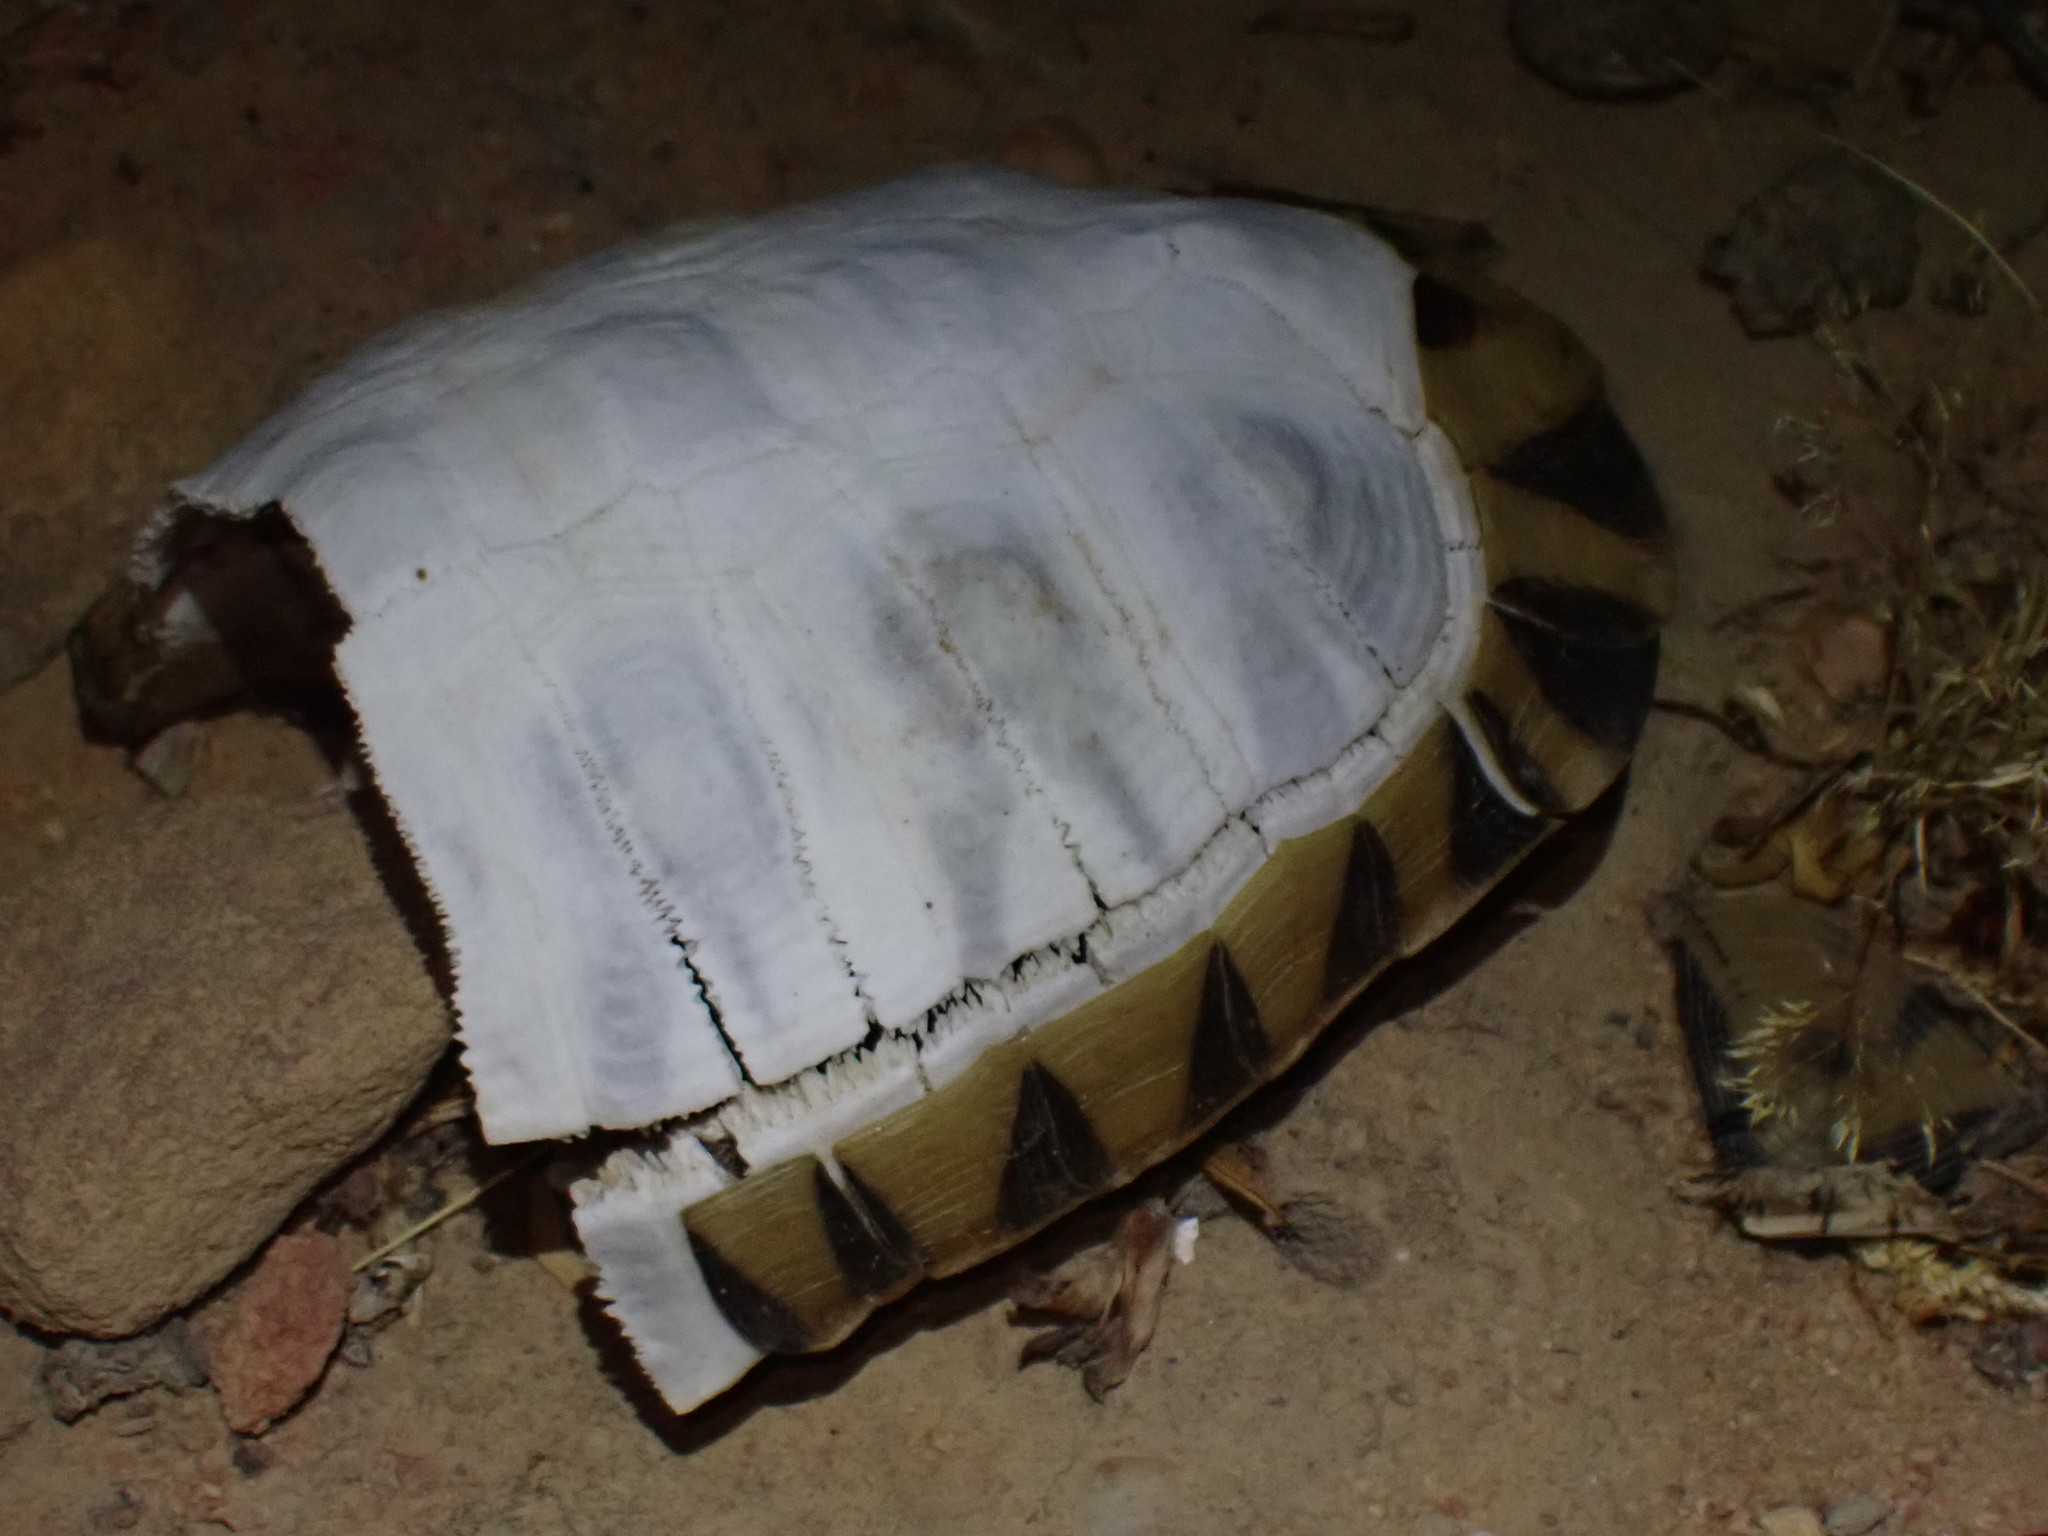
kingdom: Animalia
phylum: Chordata
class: Testudines
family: Testudinidae
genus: Chersina
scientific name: Chersina angulata
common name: South african bowsprit tortoise
